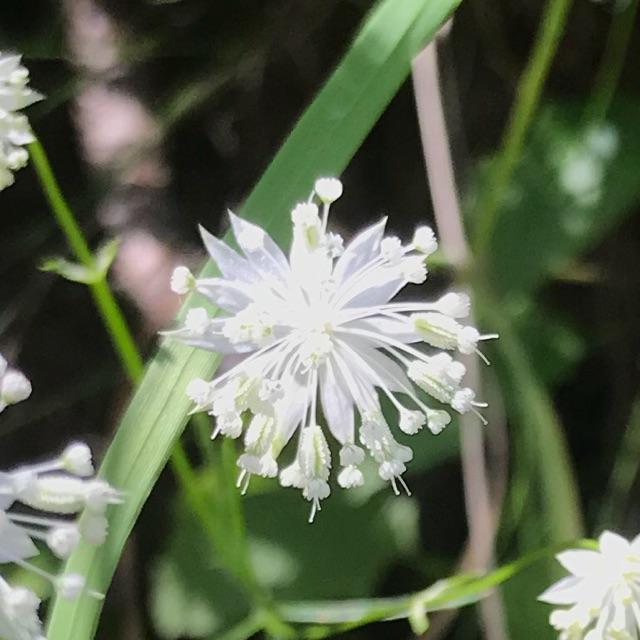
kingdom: Plantae
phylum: Tracheophyta
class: Magnoliopsida
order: Apiales
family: Apiaceae
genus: Astrantia
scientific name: Astrantia minor
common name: Lesser masterwort
